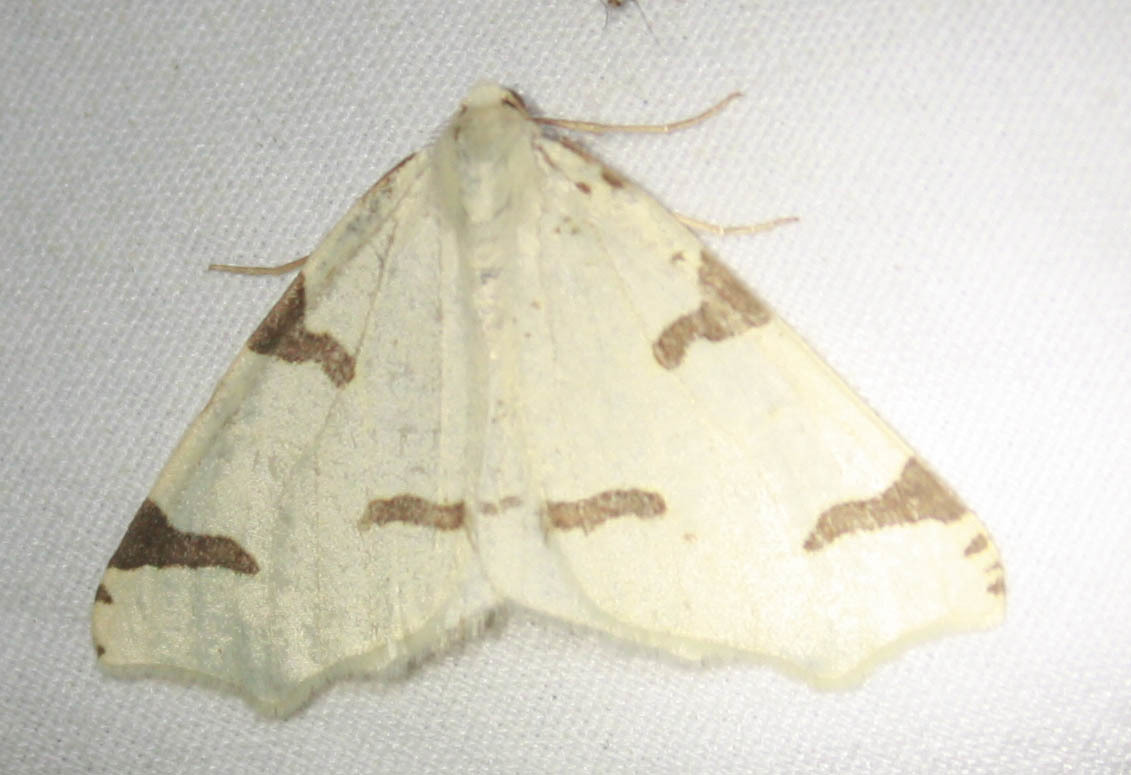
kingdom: Animalia
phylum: Arthropoda
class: Insecta
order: Lepidoptera
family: Geometridae
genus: Neoterpes
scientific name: Neoterpes trianguliferata
